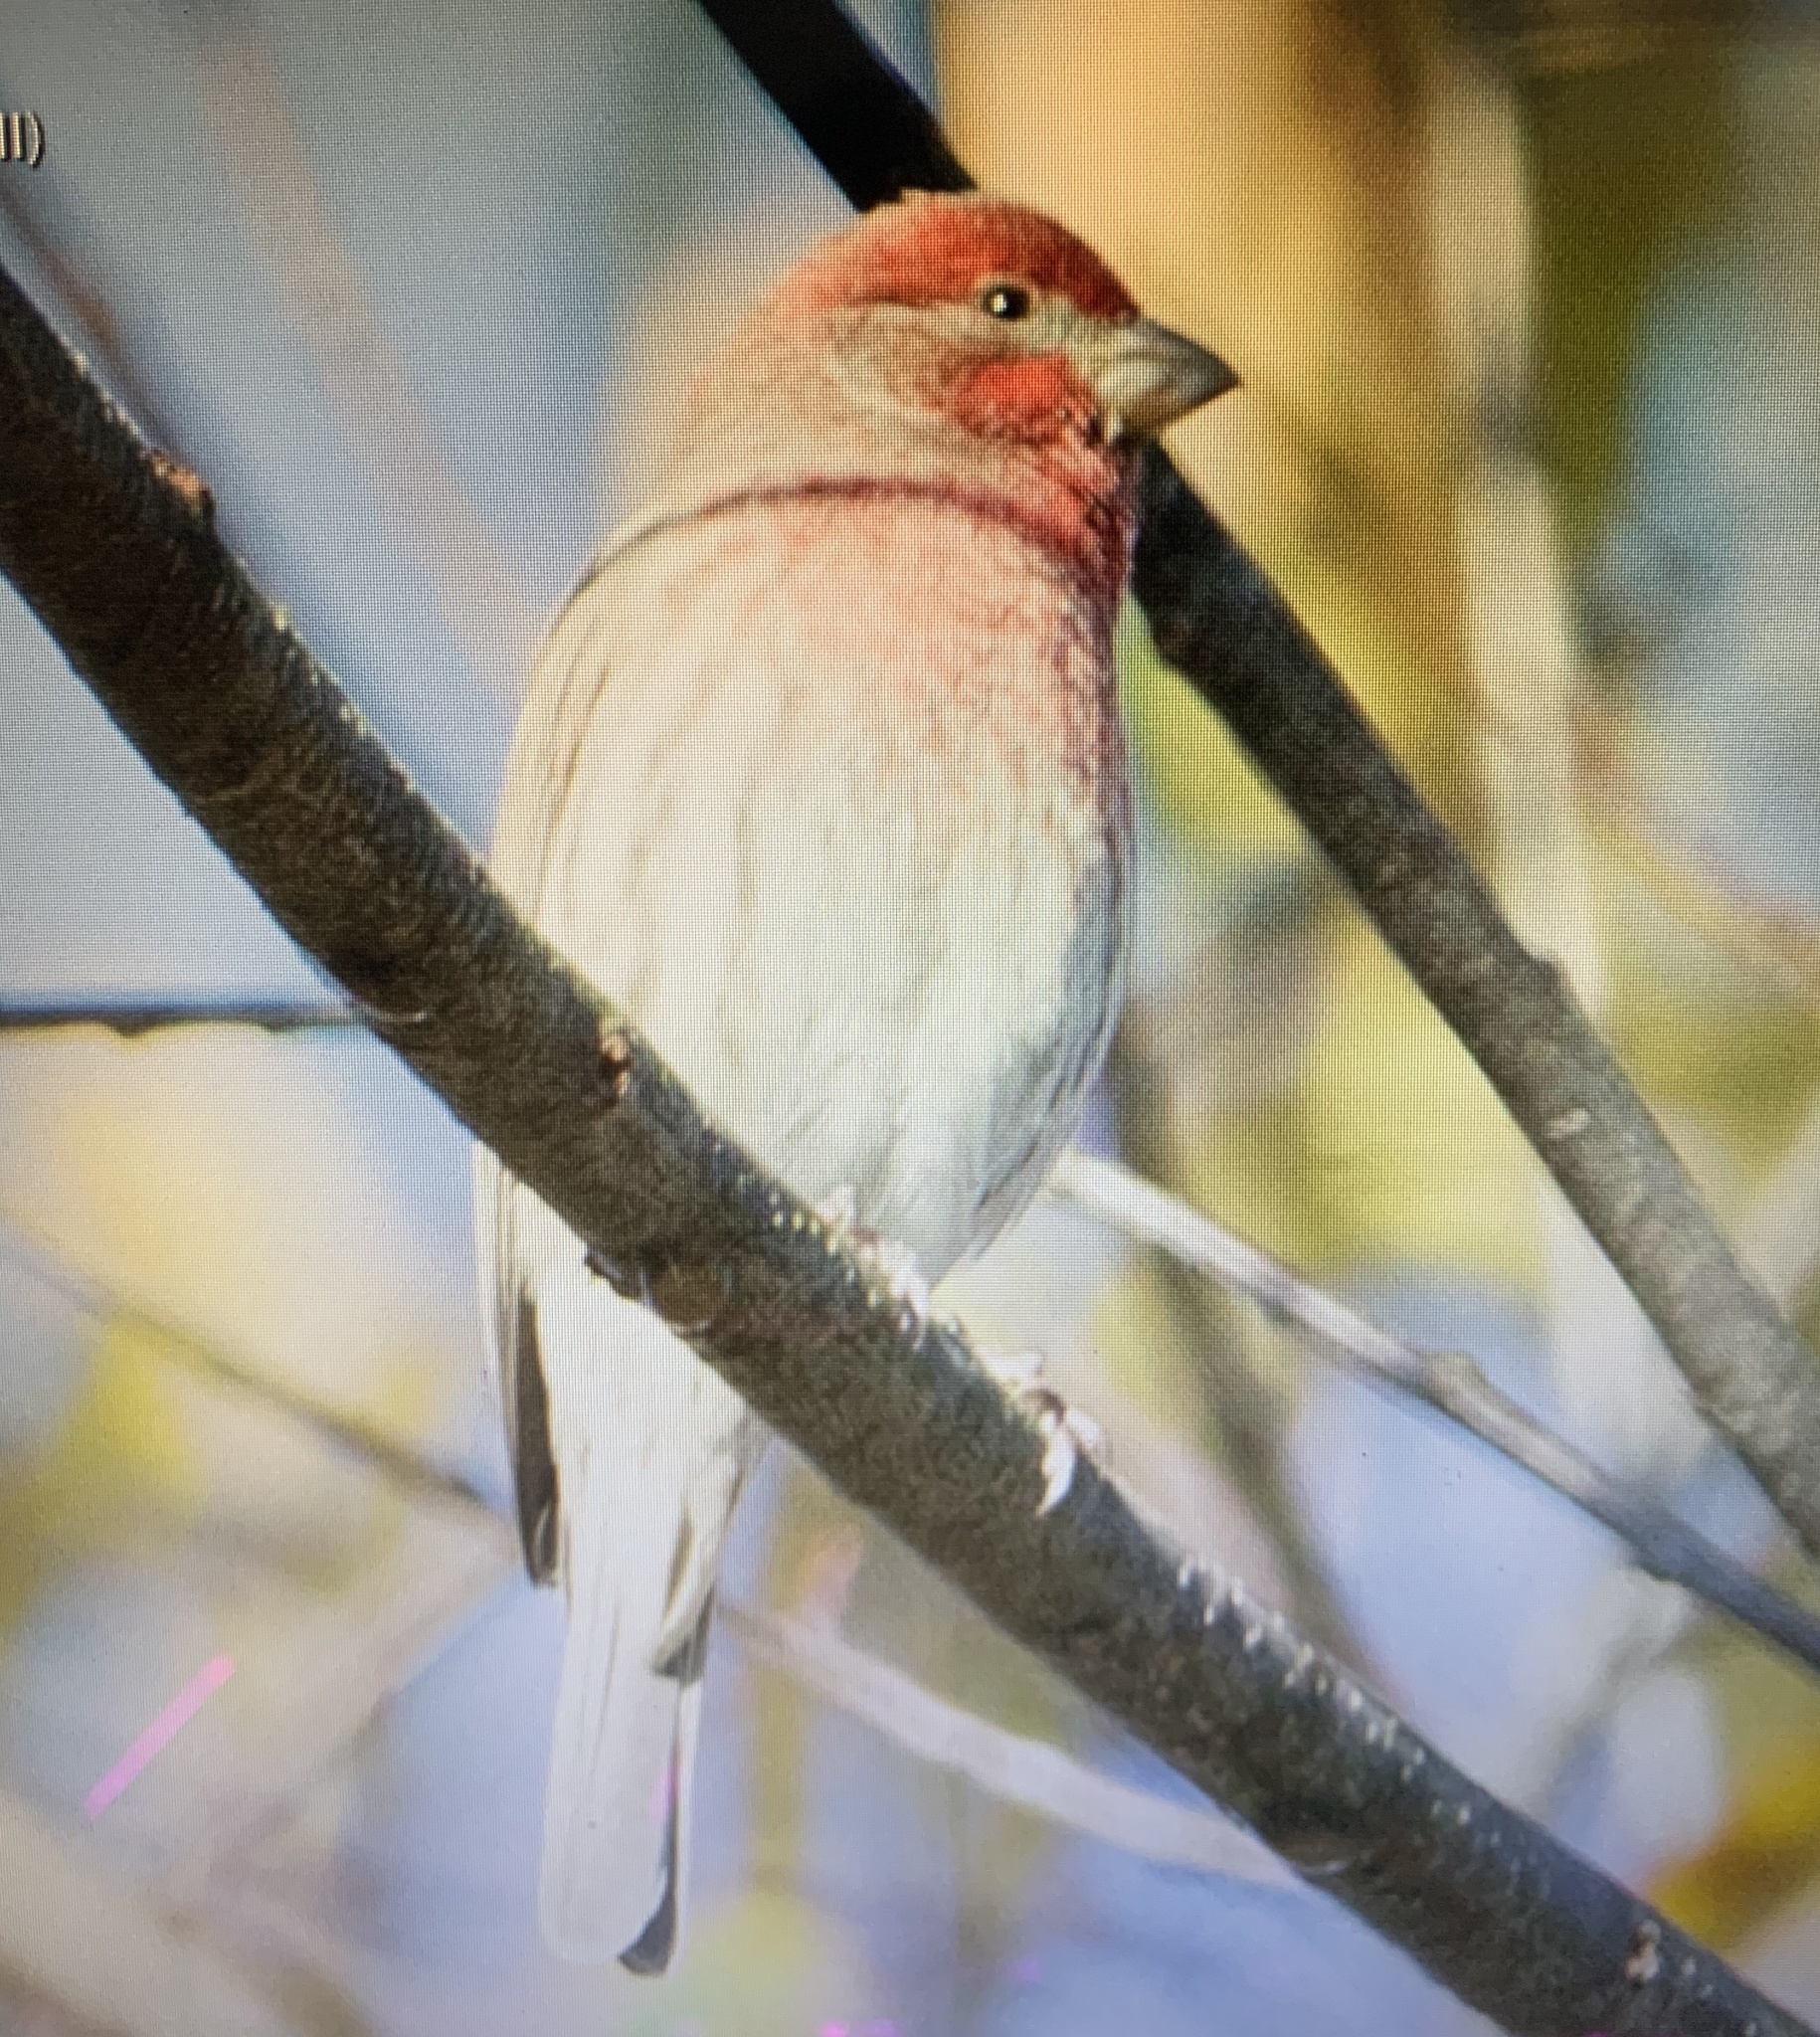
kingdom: Animalia
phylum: Chordata
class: Aves
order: Passeriformes
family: Fringillidae
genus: Haemorhous
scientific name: Haemorhous mexicanus
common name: House finch
